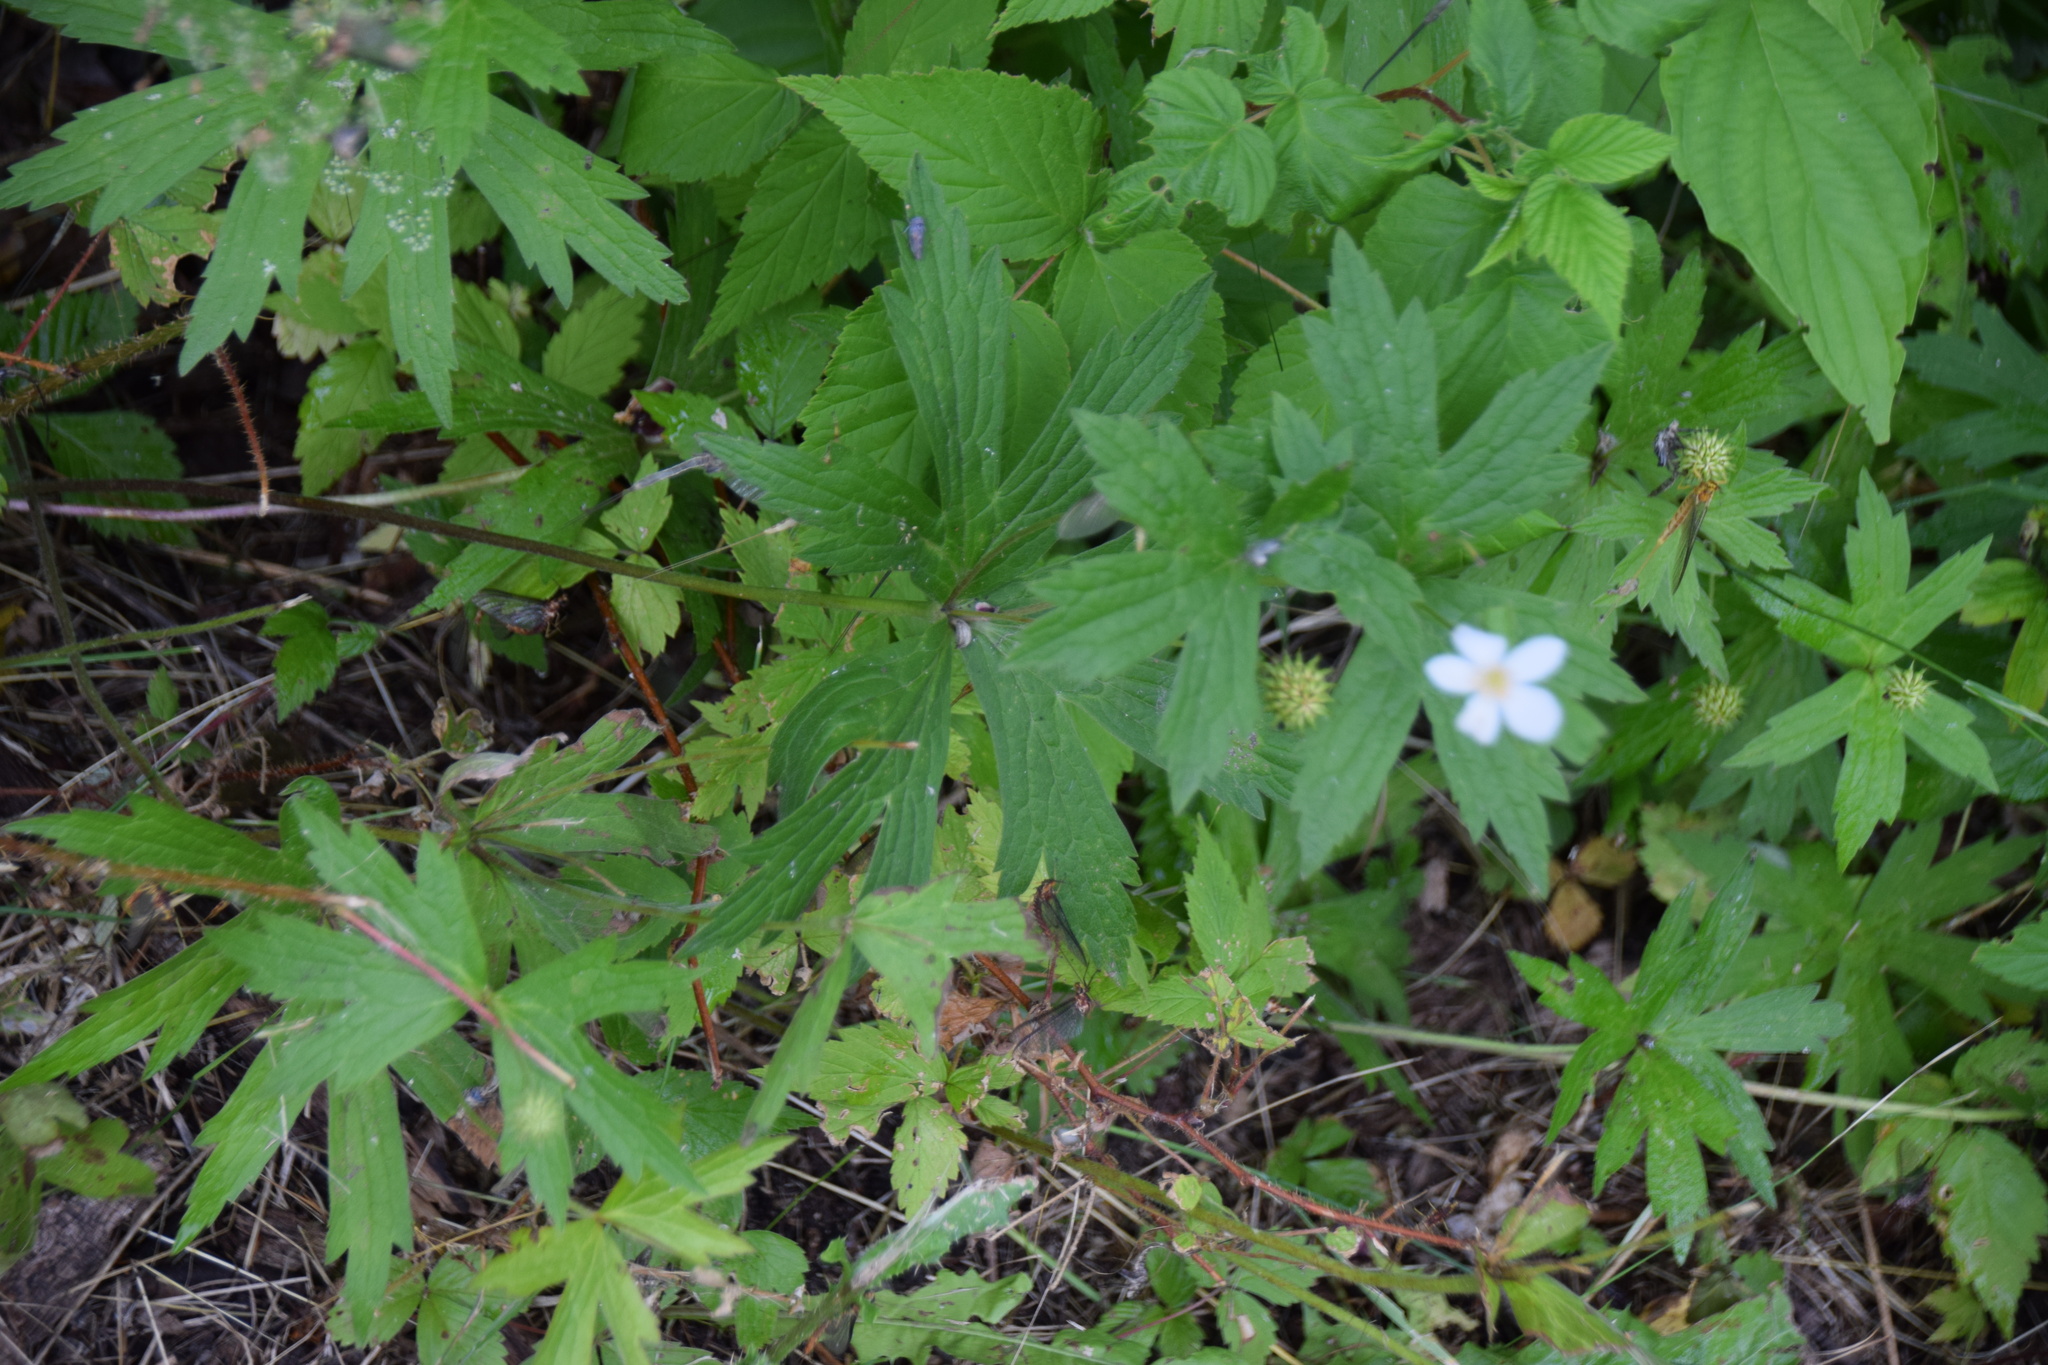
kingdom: Plantae
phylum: Tracheophyta
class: Magnoliopsida
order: Ranunculales
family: Ranunculaceae
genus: Anemonastrum
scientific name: Anemonastrum canadense
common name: Canada anemone
